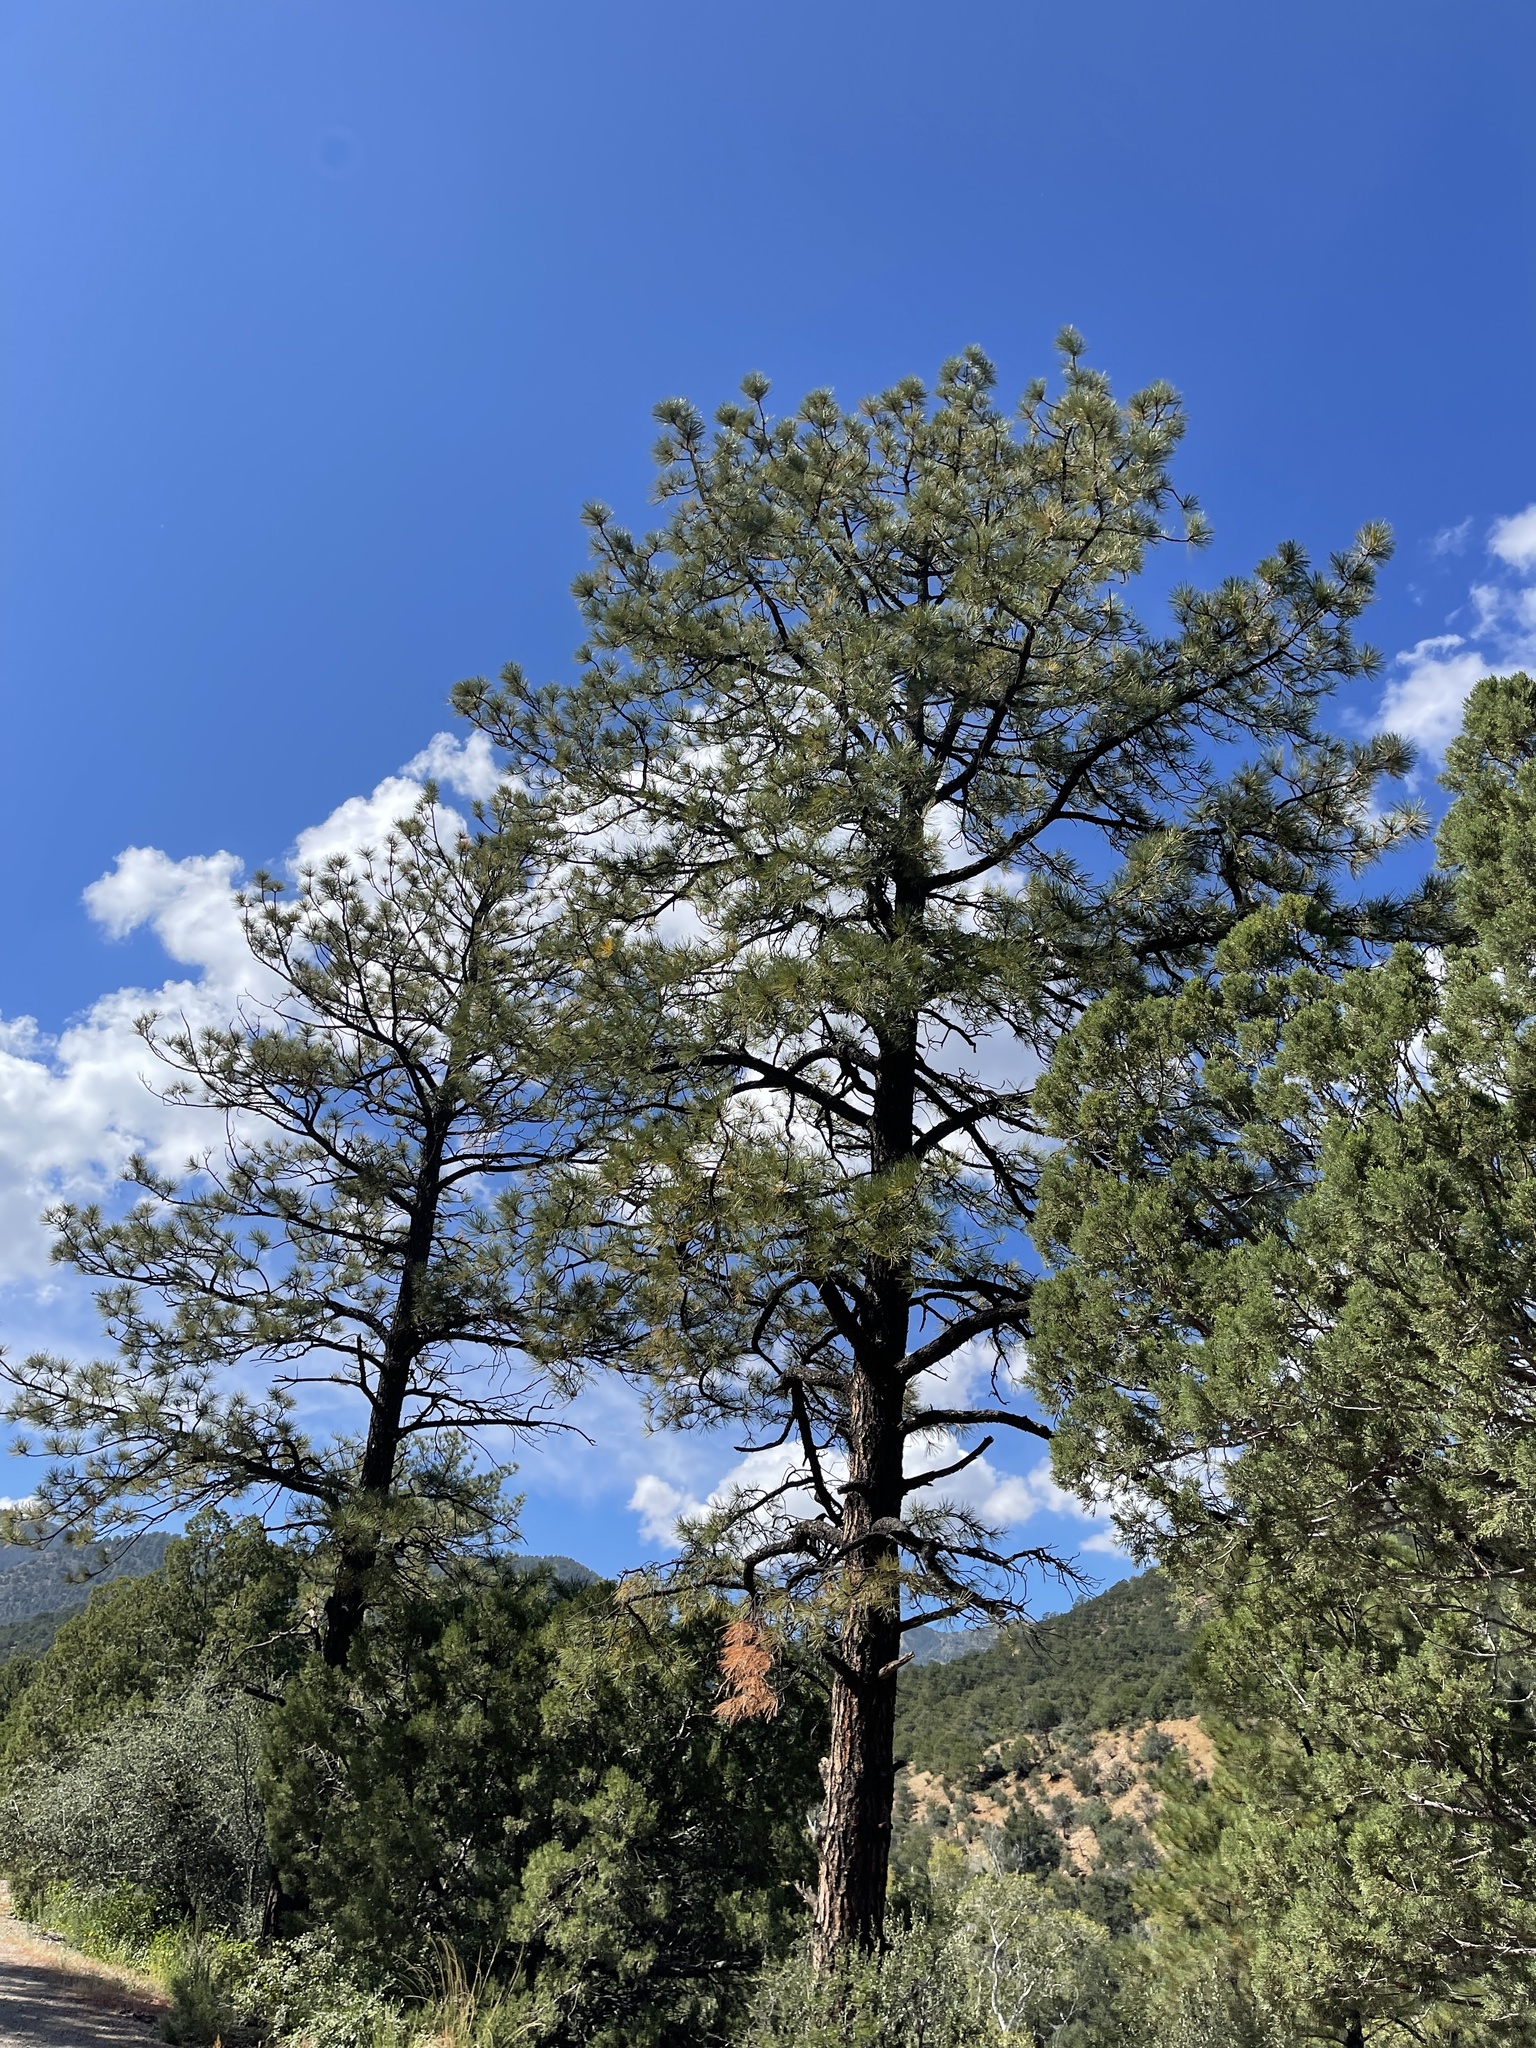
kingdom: Plantae
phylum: Tracheophyta
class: Pinopsida
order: Pinales
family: Pinaceae
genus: Pinus
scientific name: Pinus ponderosa
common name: Western yellow-pine
